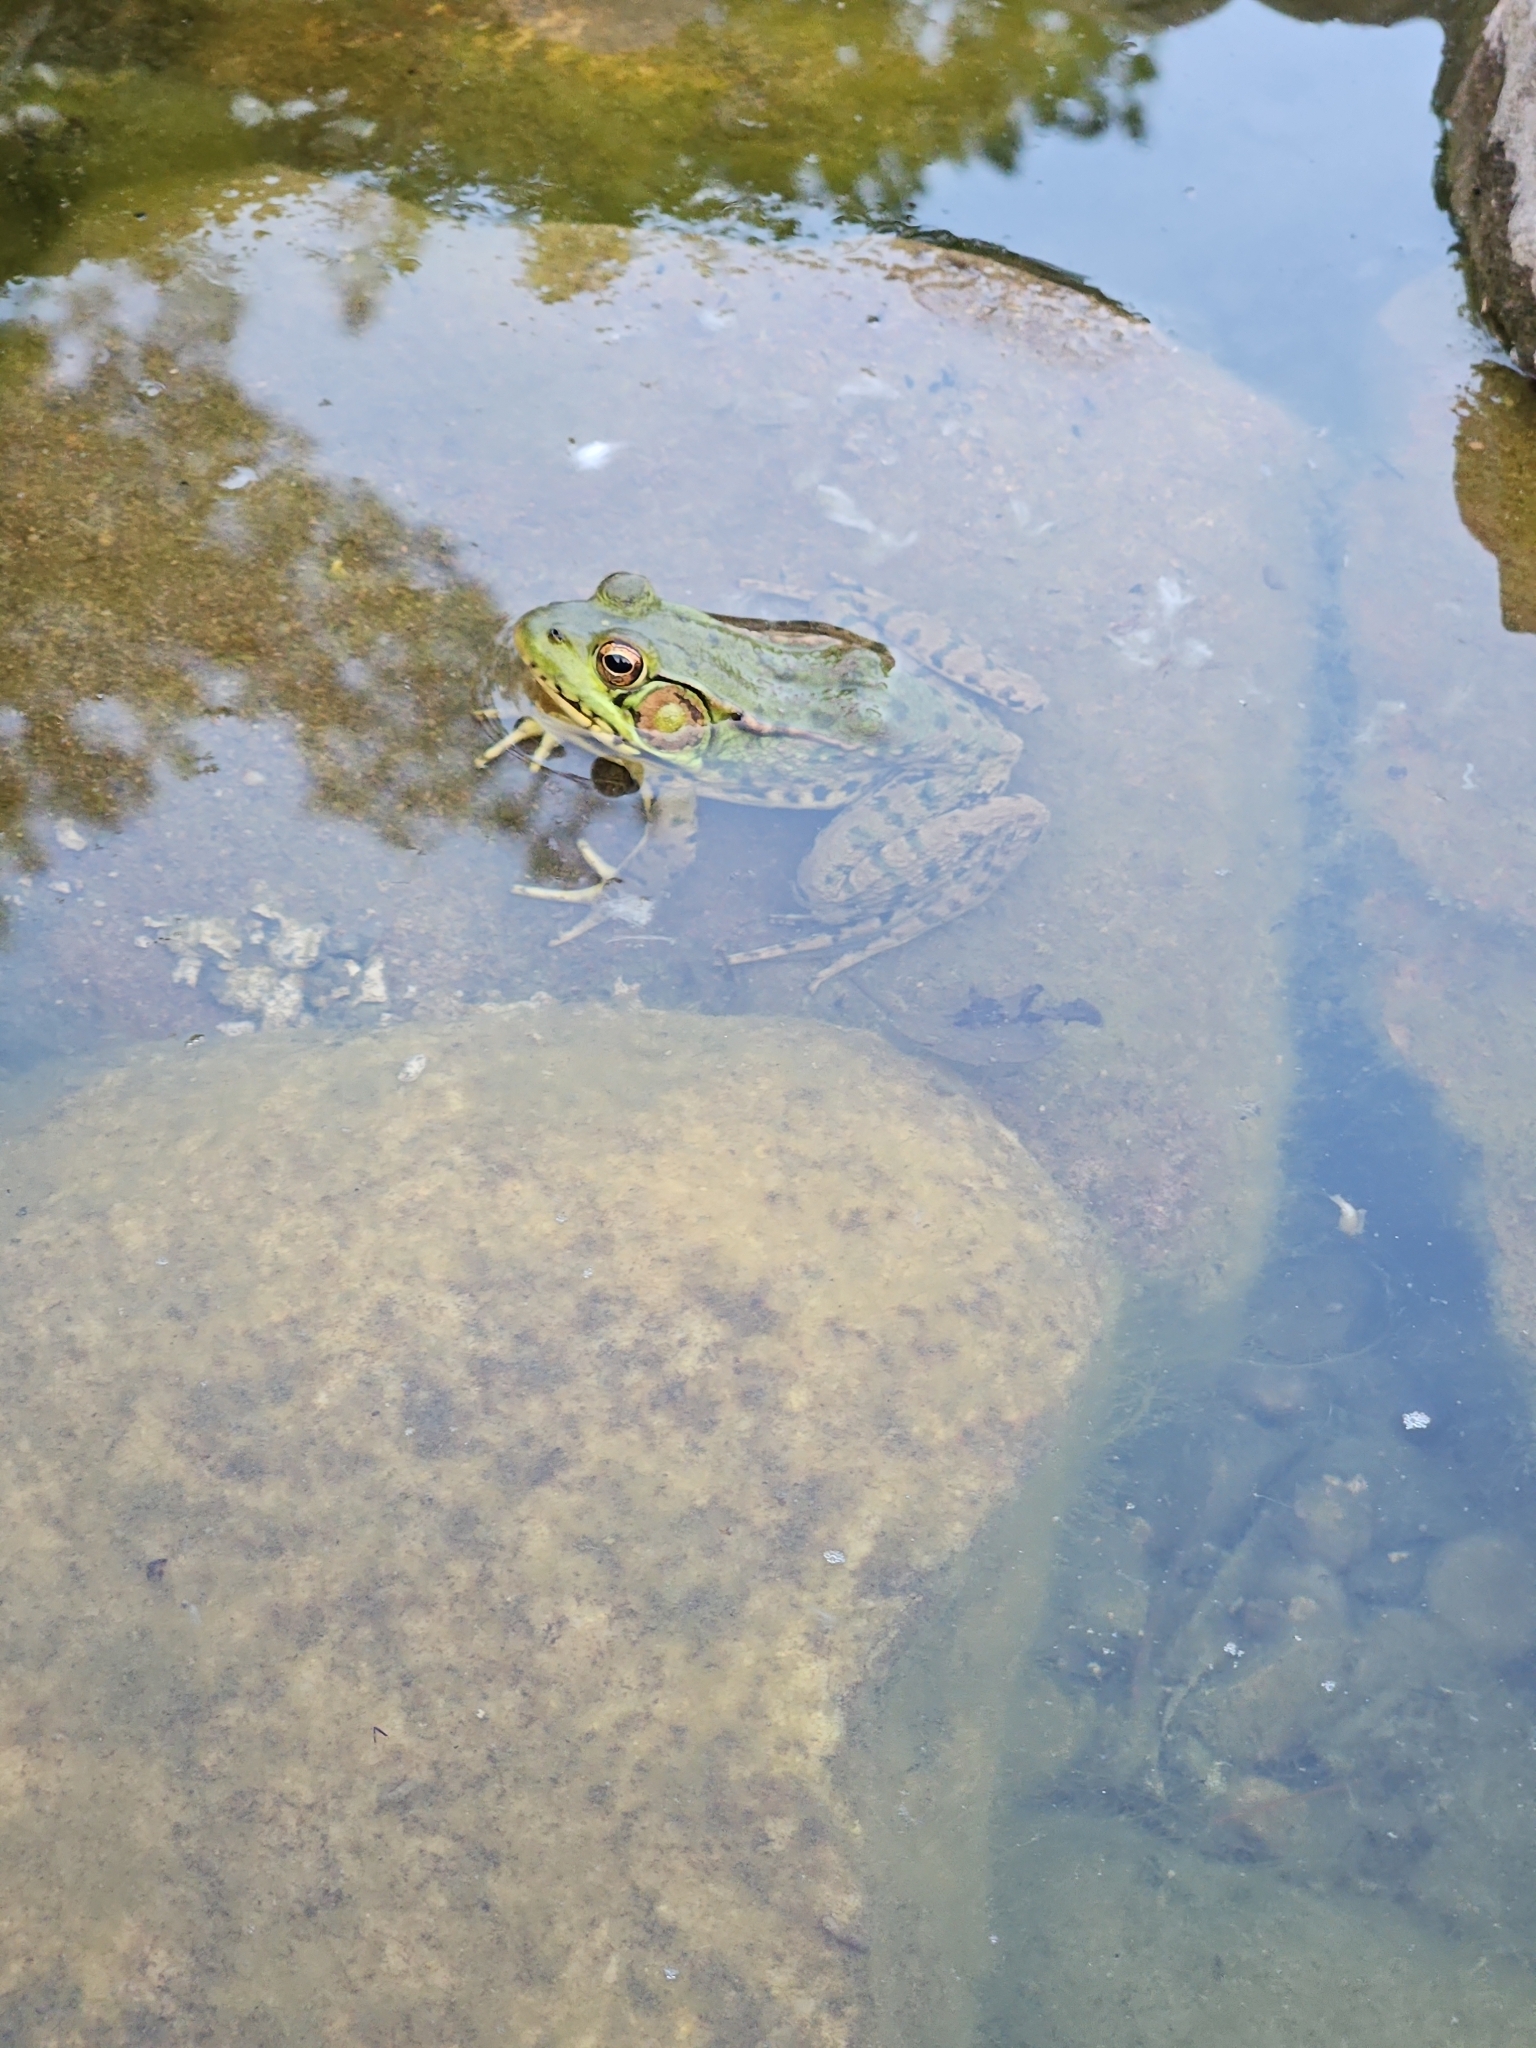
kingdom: Animalia
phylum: Chordata
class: Amphibia
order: Anura
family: Ranidae
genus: Lithobates
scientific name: Lithobates clamitans
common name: Green frog
